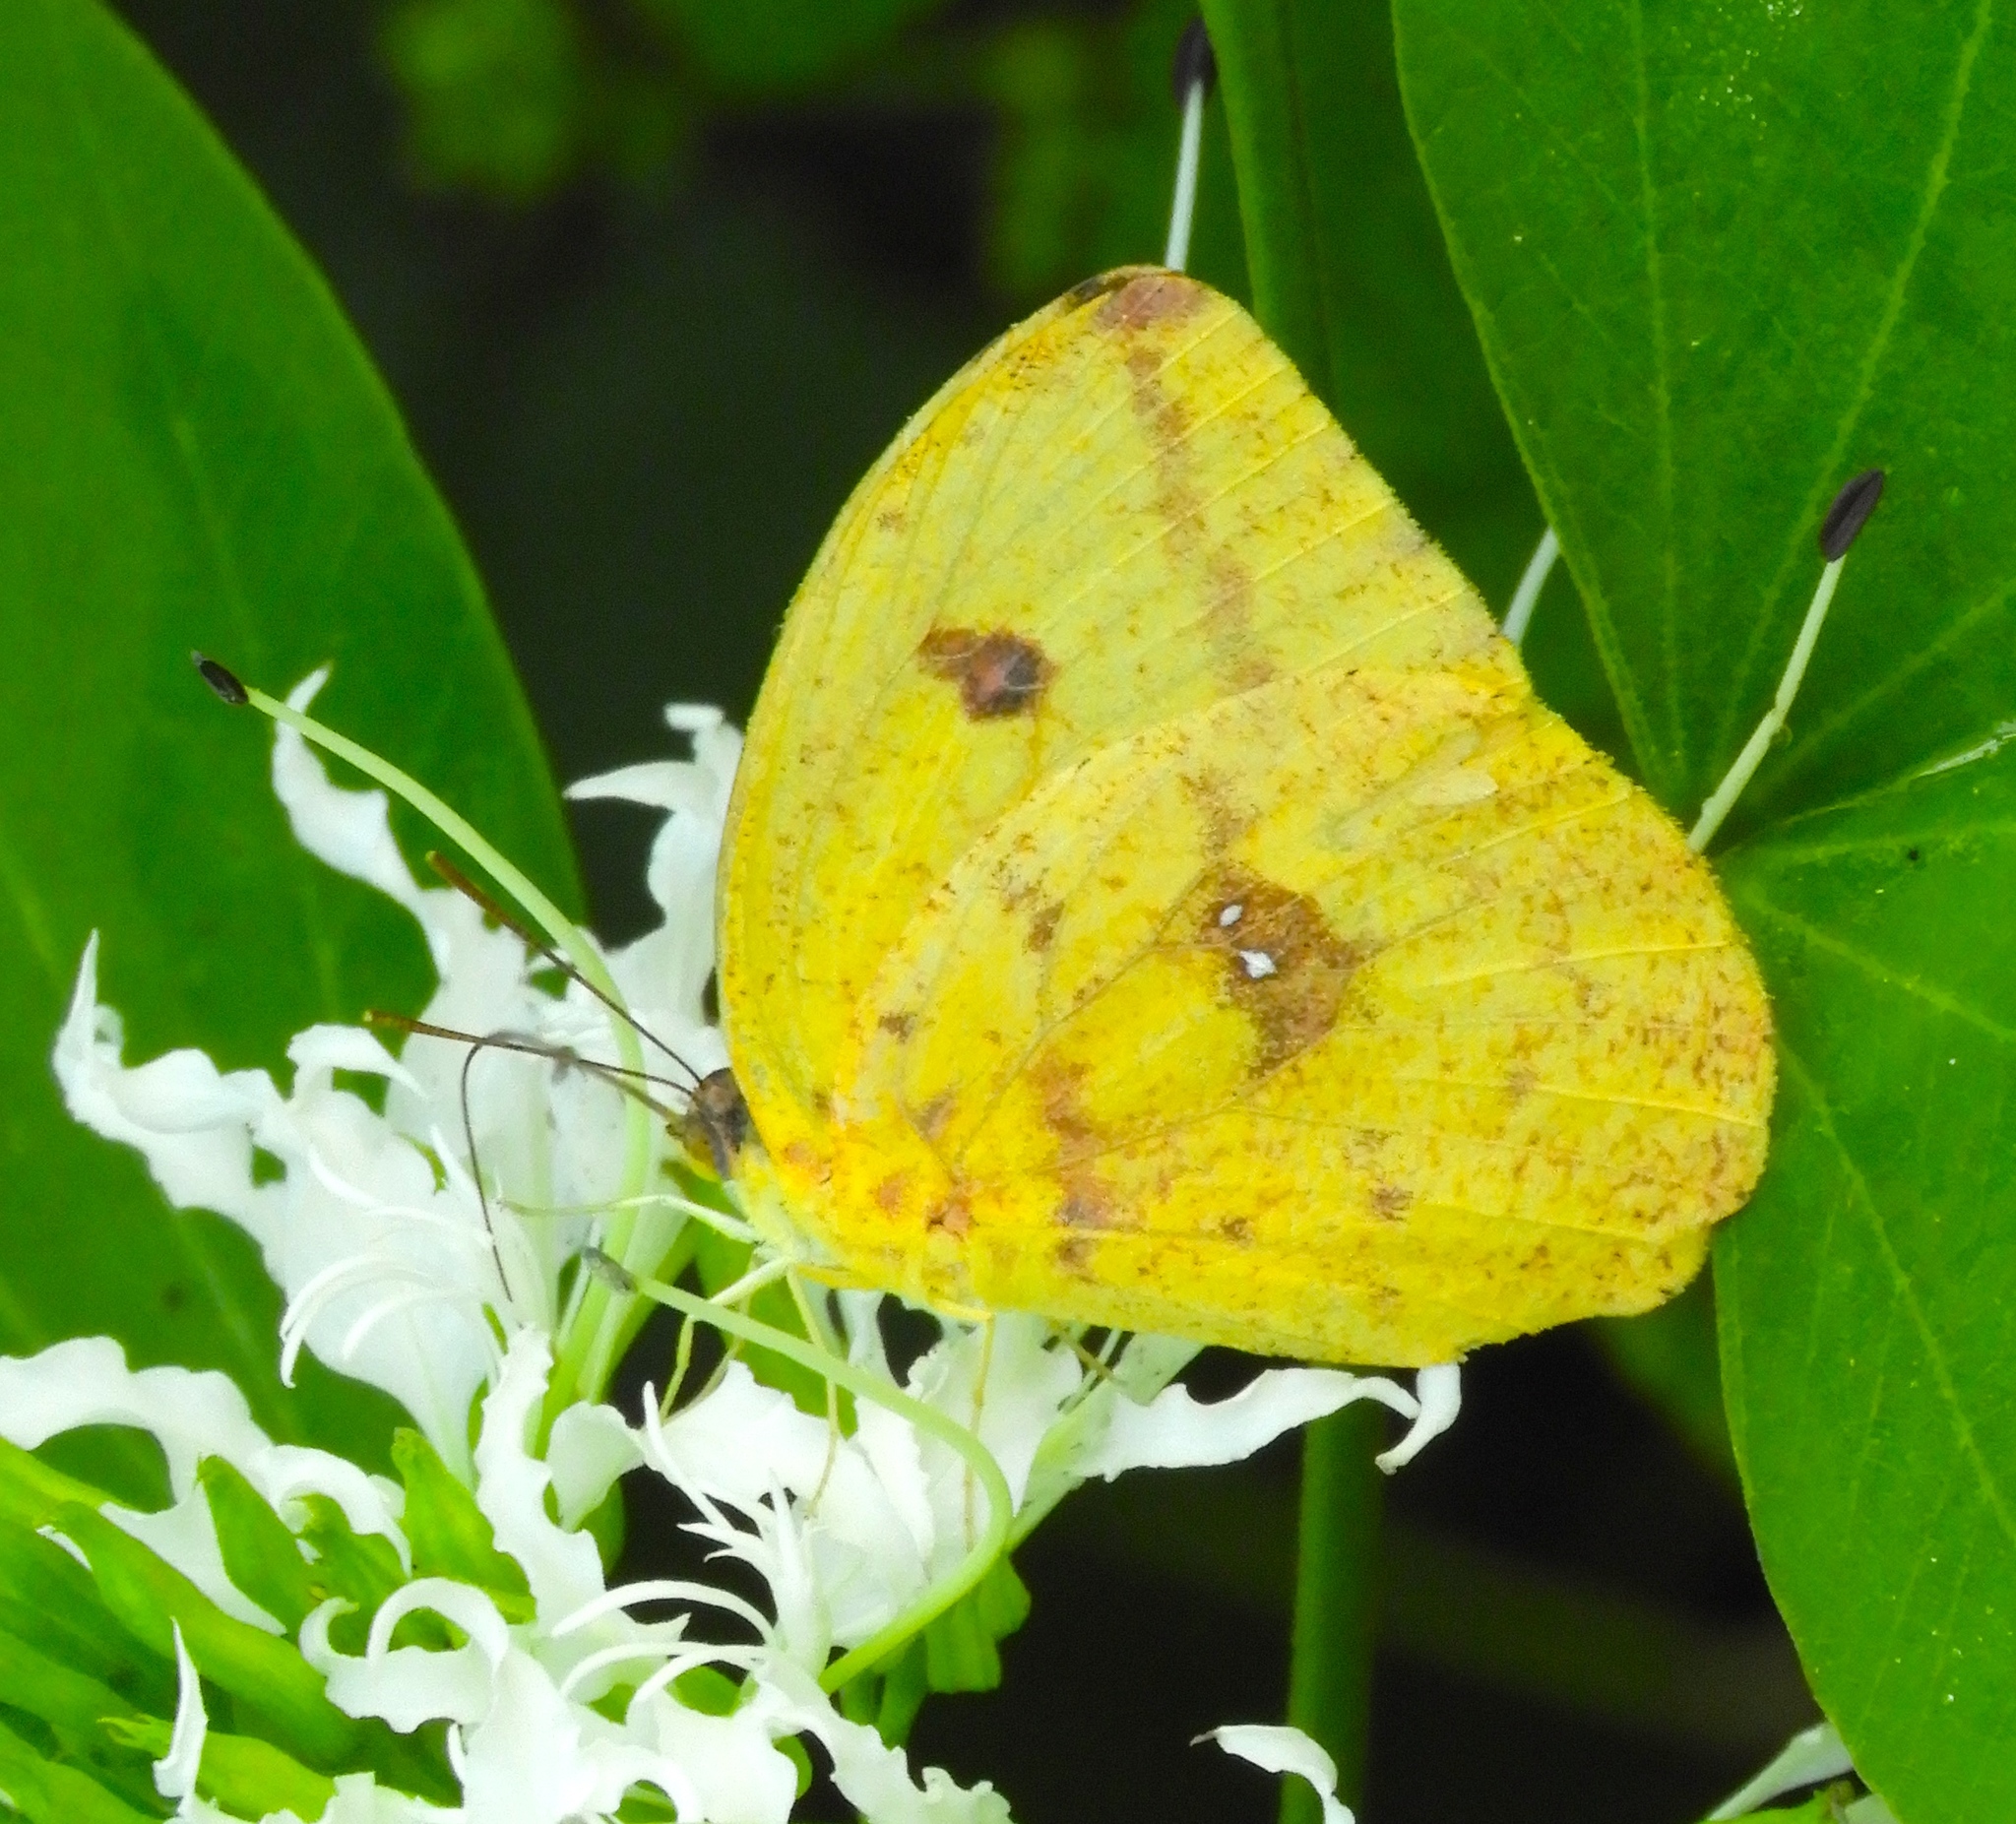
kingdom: Animalia
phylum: Arthropoda
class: Insecta
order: Lepidoptera
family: Pieridae
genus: Phoebis
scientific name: Phoebis agarithe
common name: Large orange sulphur
